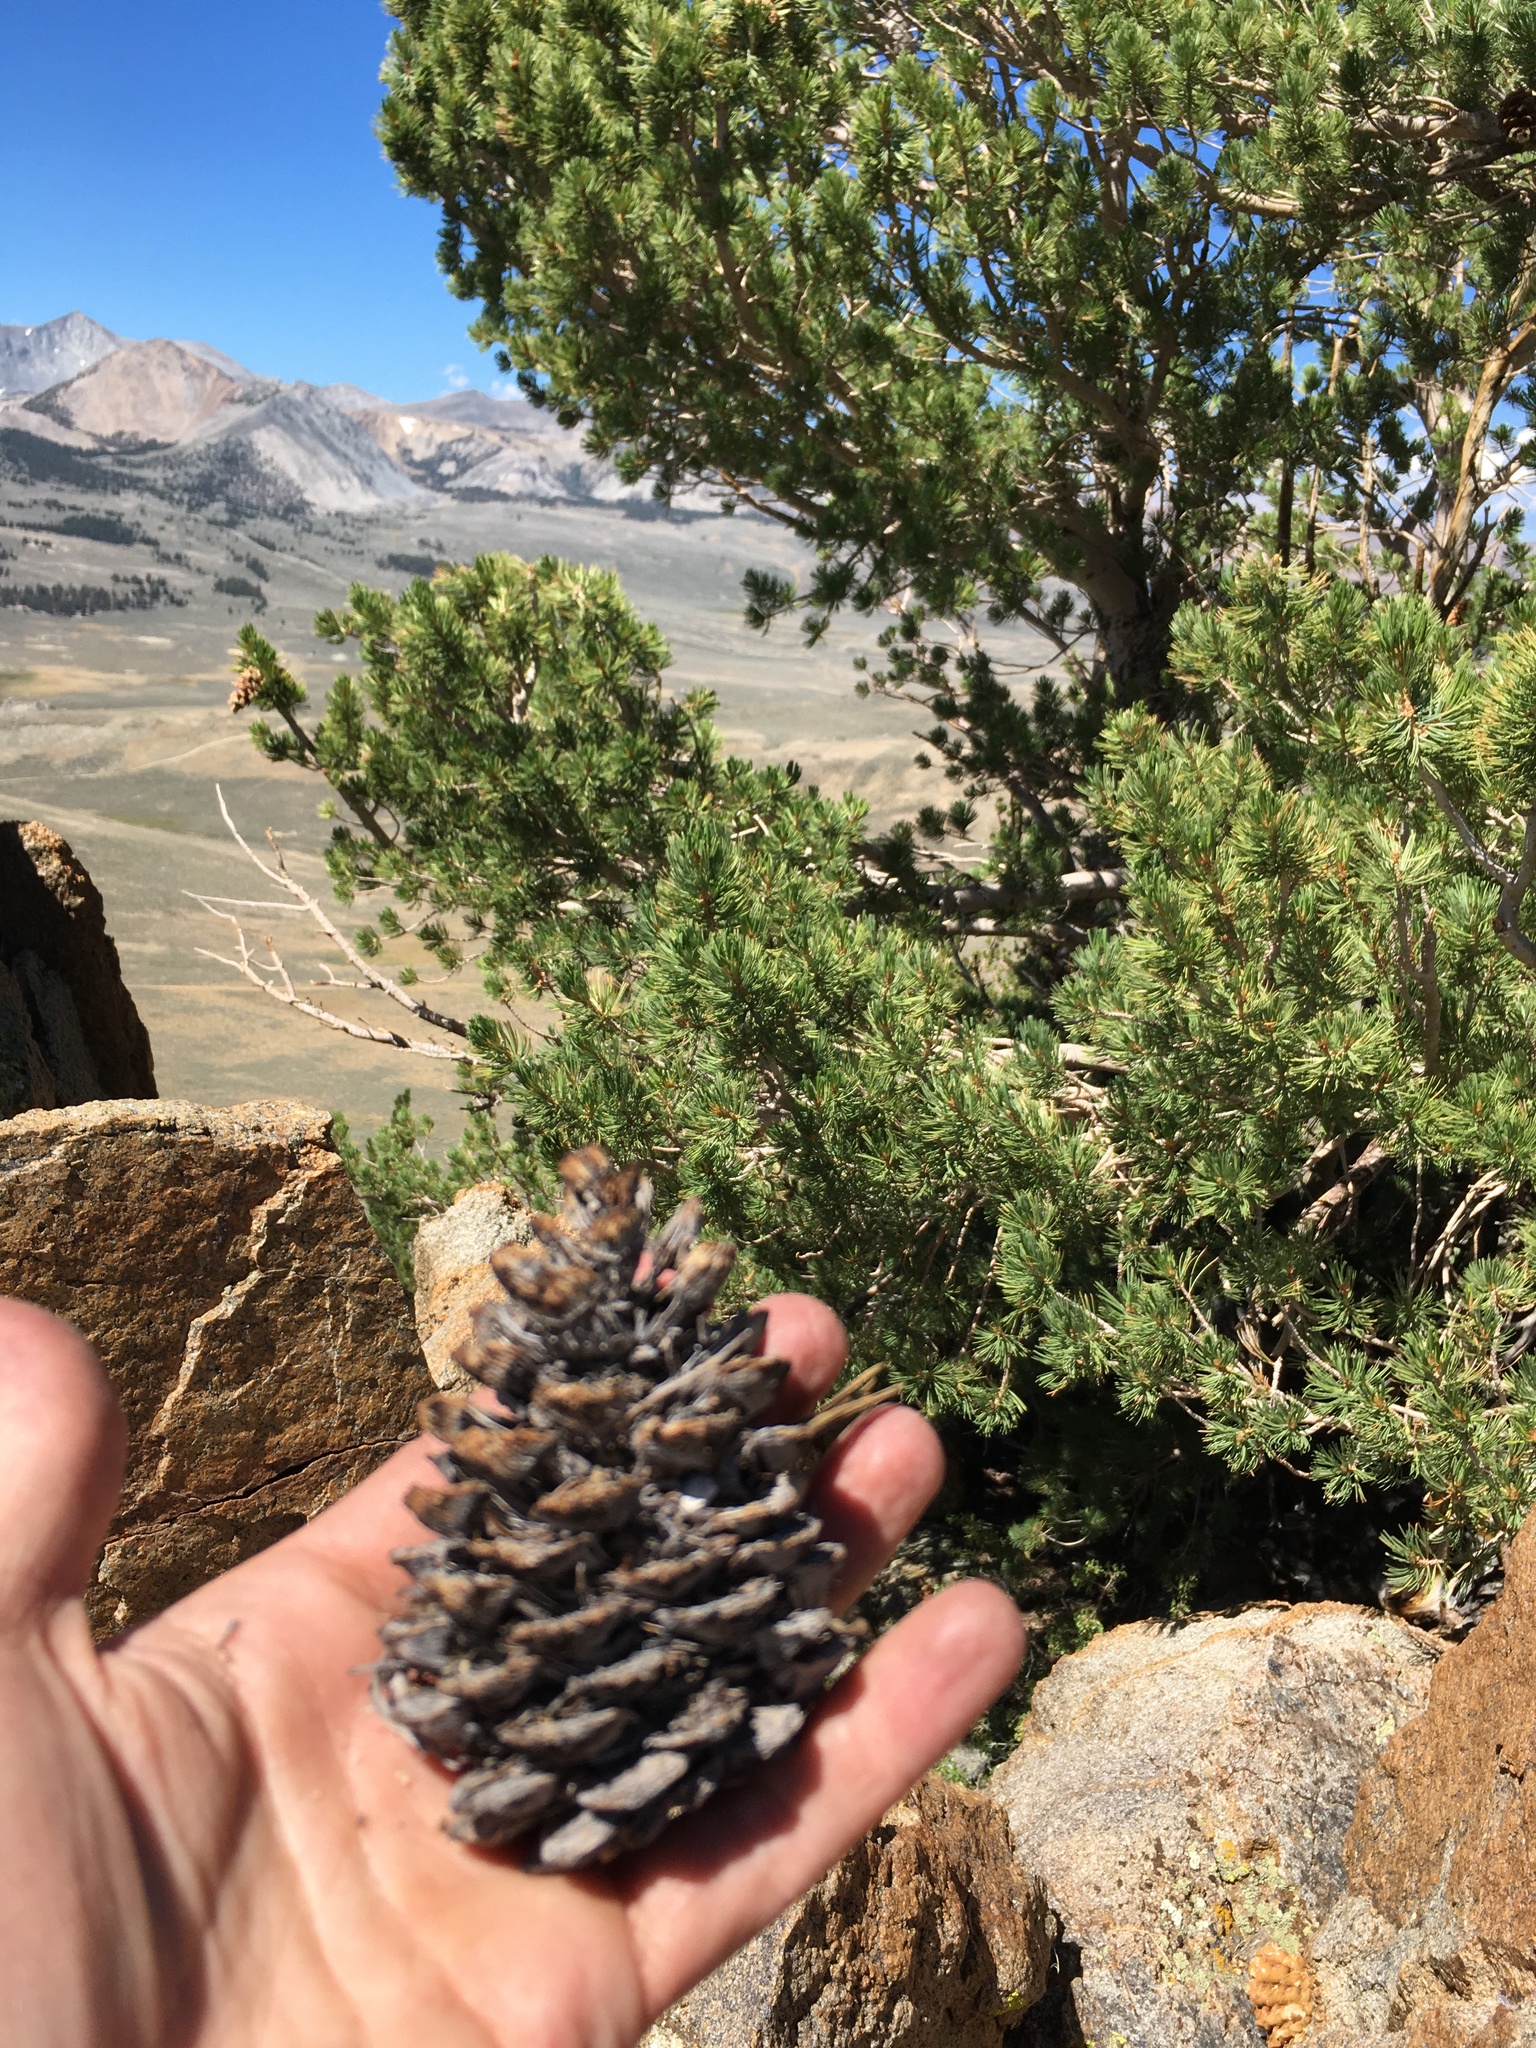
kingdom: Plantae
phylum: Tracheophyta
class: Pinopsida
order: Pinales
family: Pinaceae
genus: Pinus
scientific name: Pinus flexilis
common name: Limber pine
